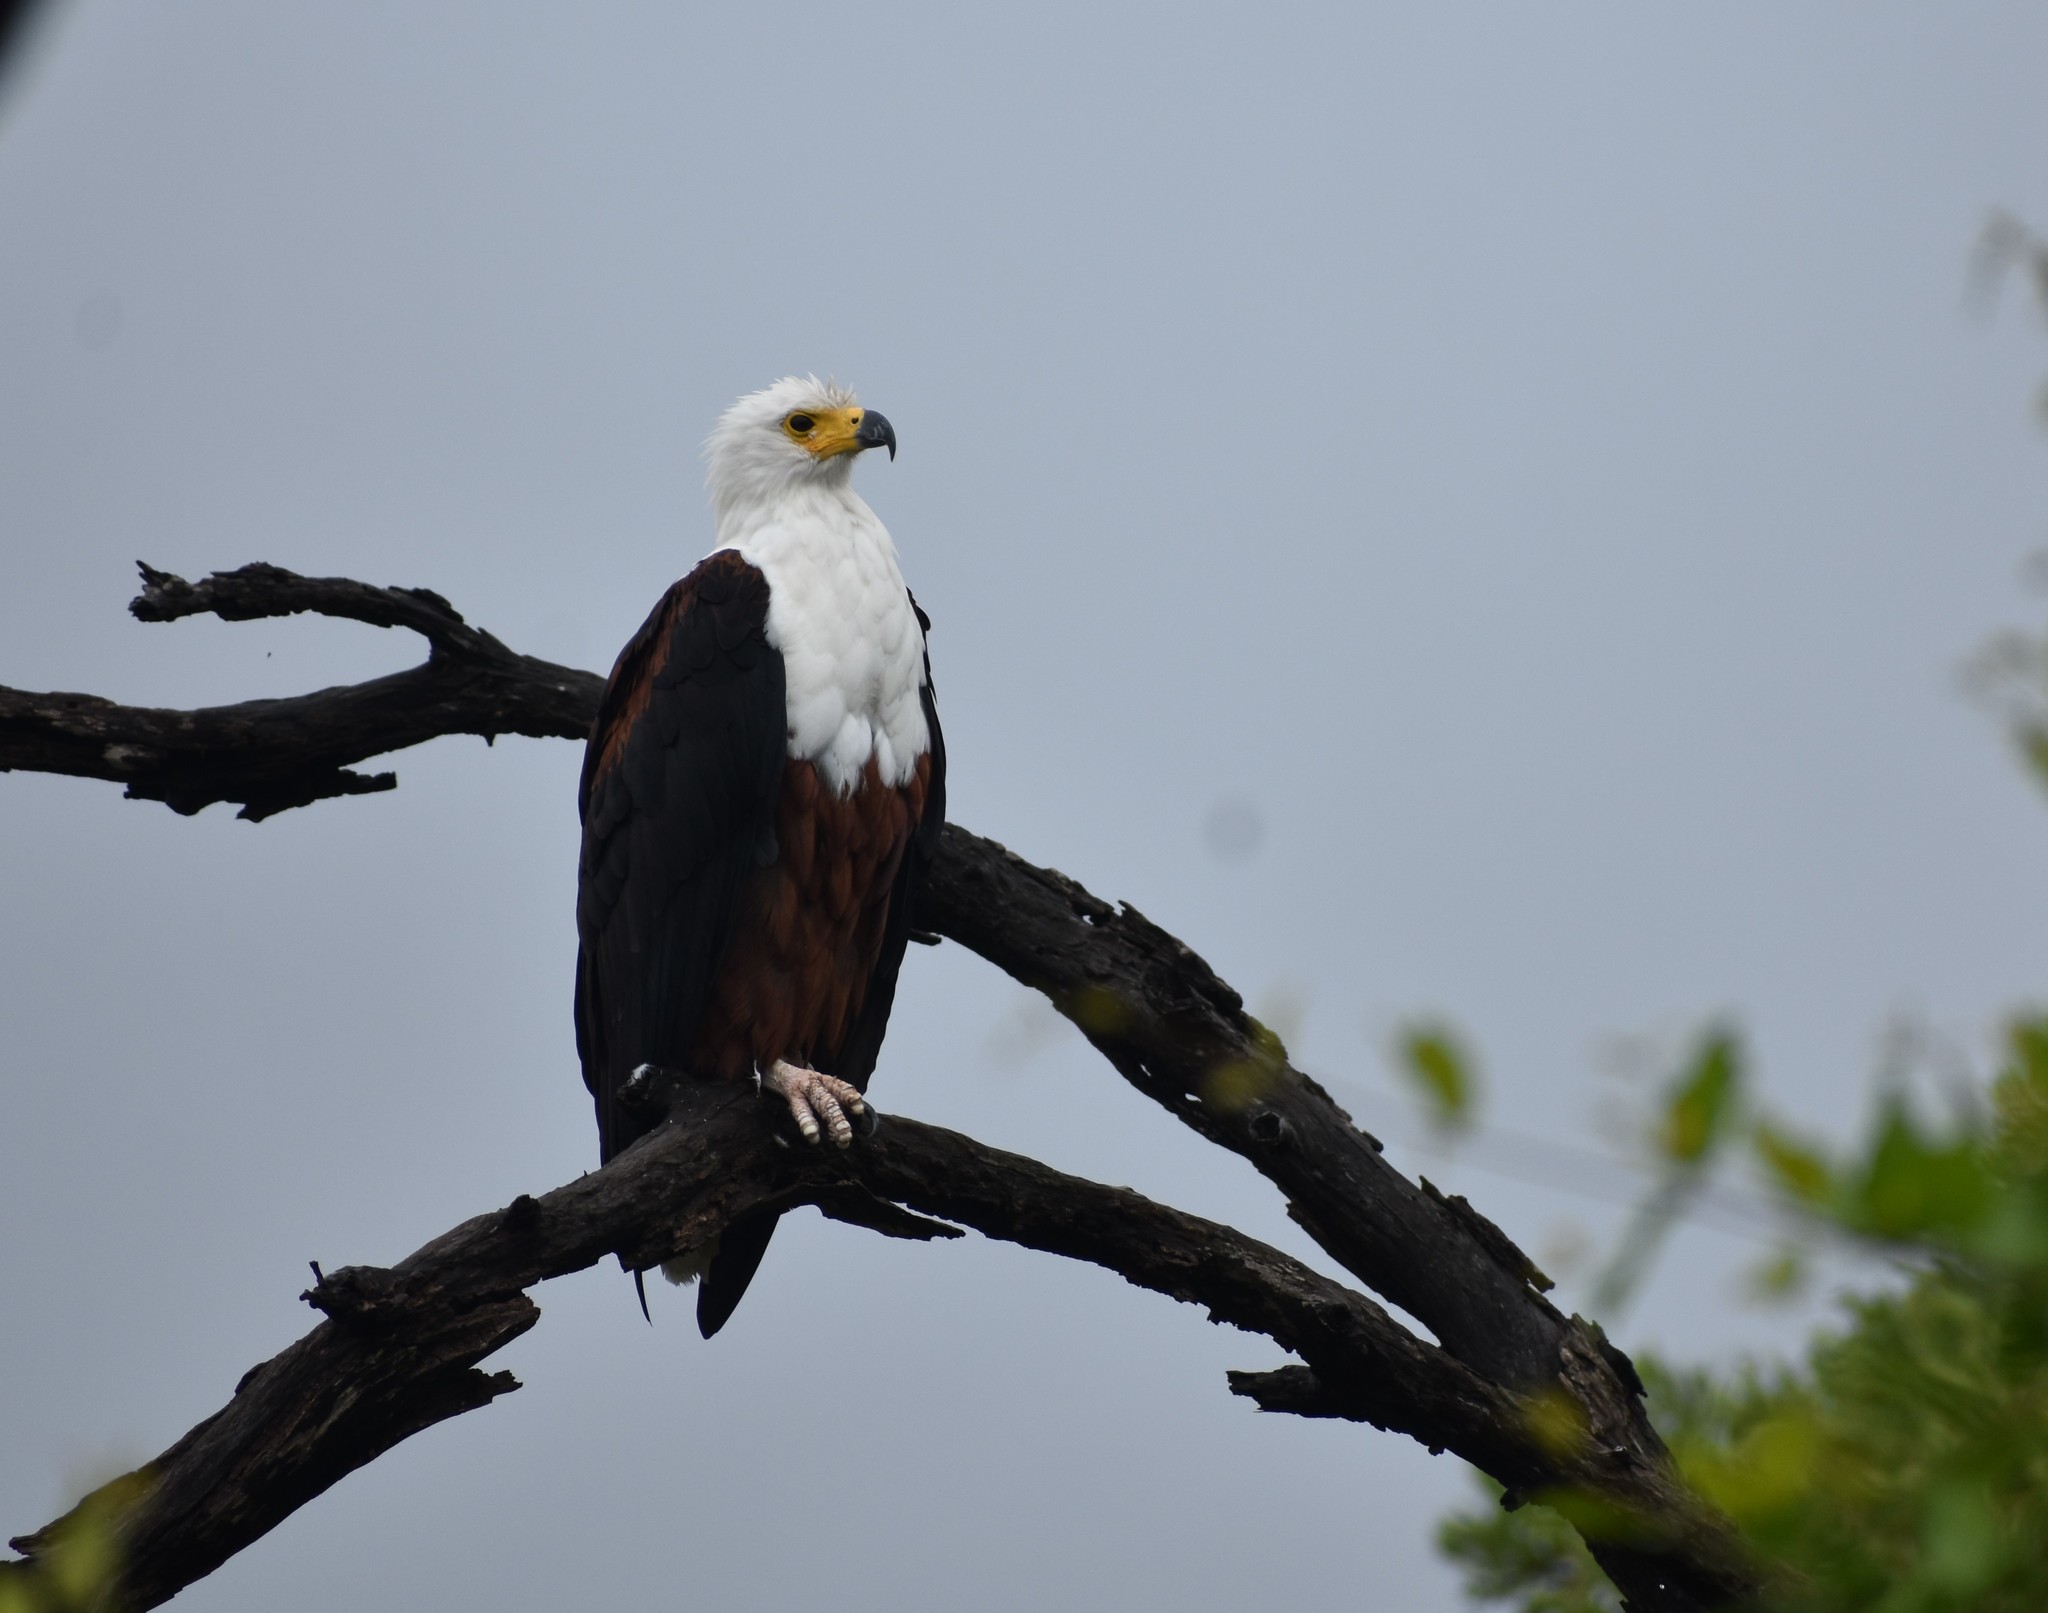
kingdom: Animalia
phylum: Chordata
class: Aves
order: Accipitriformes
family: Accipitridae
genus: Haliaeetus
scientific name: Haliaeetus vocifer
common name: African fish eagle
